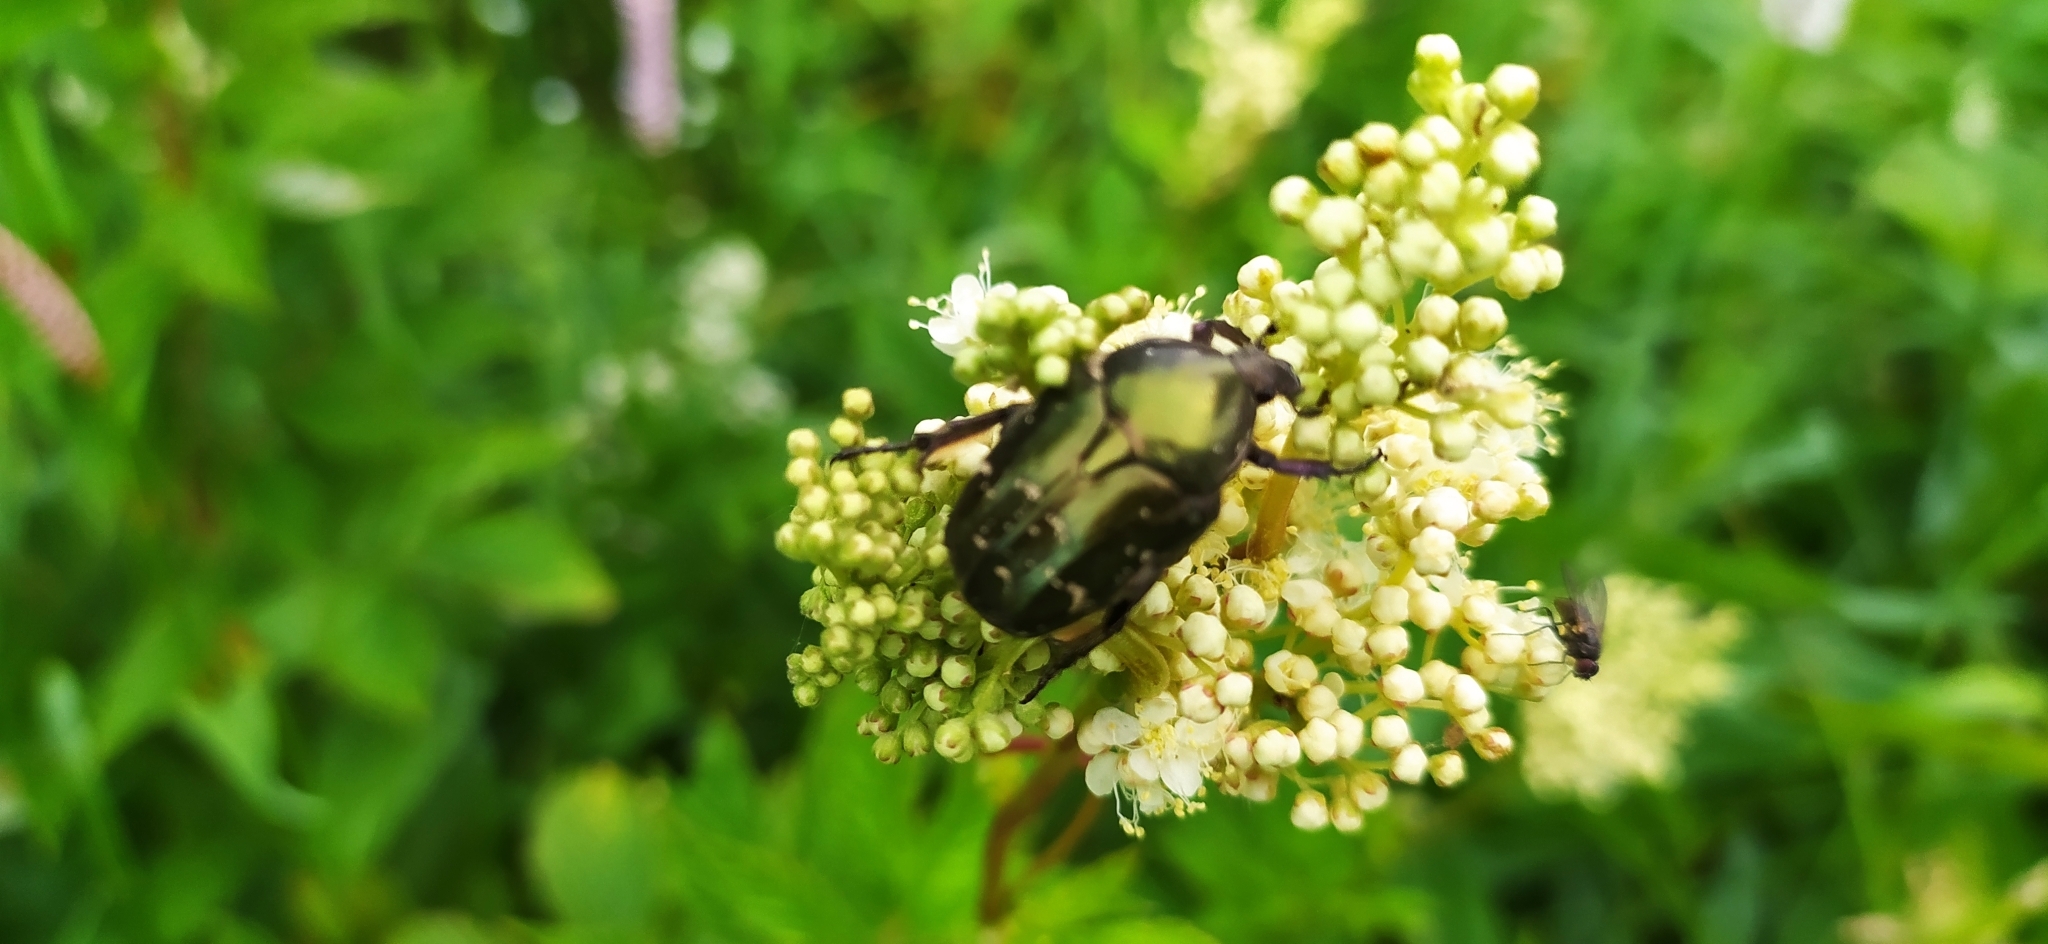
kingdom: Animalia
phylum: Arthropoda
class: Insecta
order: Coleoptera
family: Scarabaeidae
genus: Protaetia
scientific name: Protaetia cuprea
